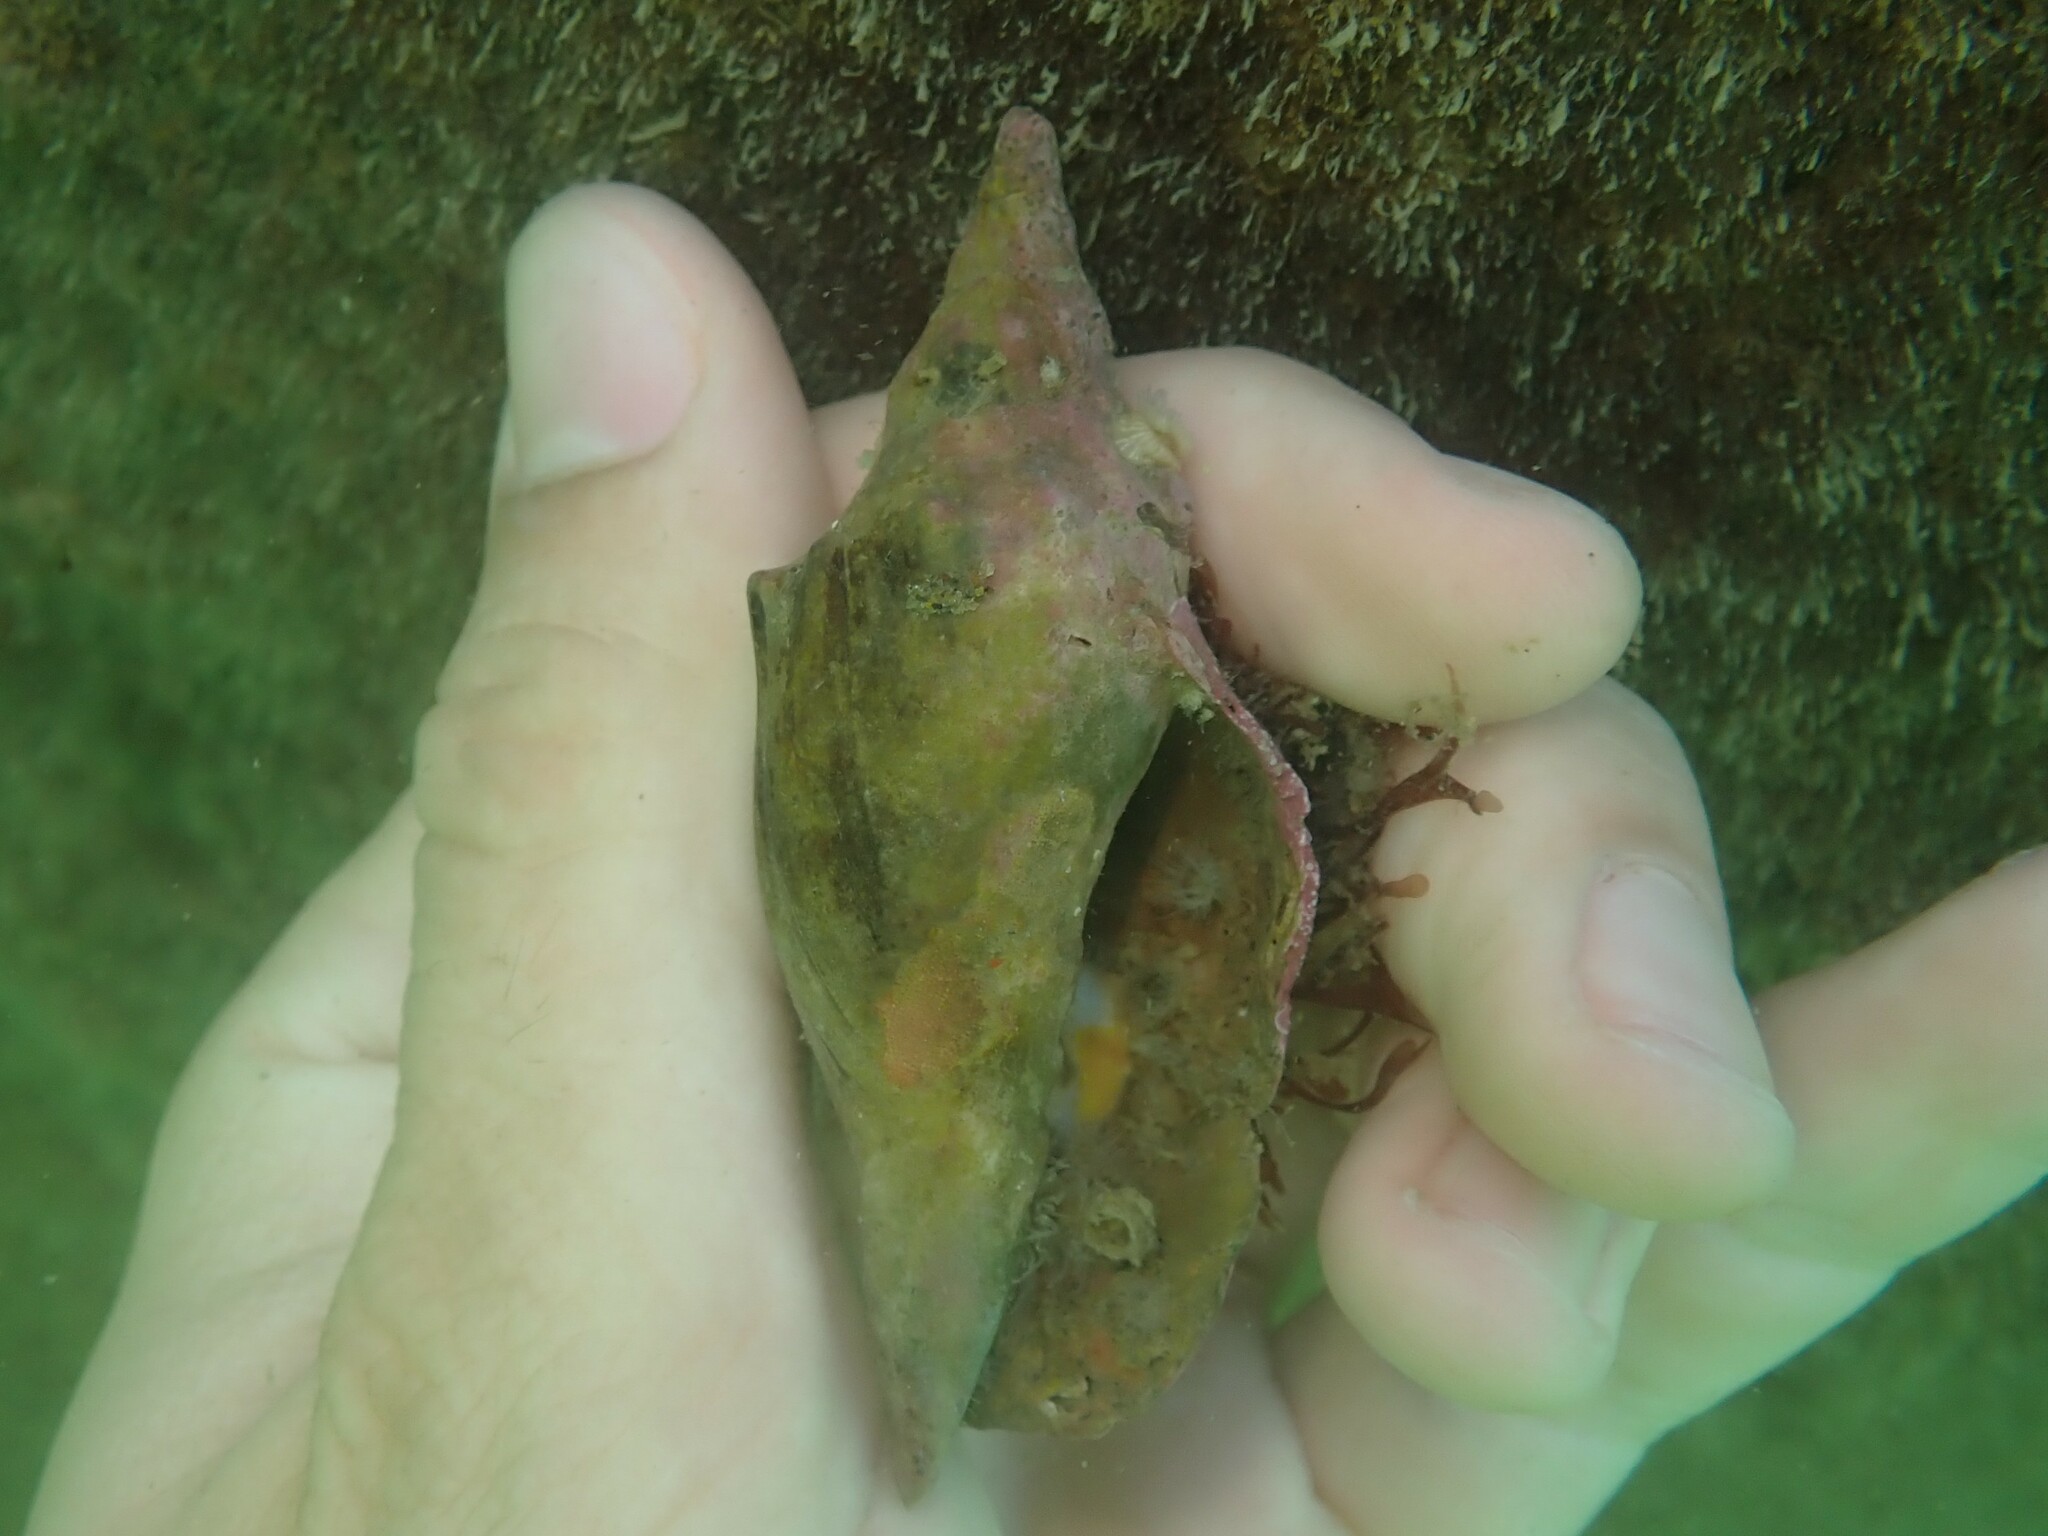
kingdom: Animalia
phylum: Mollusca
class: Gastropoda
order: Neogastropoda
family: Volutidae
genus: Alcithoe
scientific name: Alcithoe arabica
